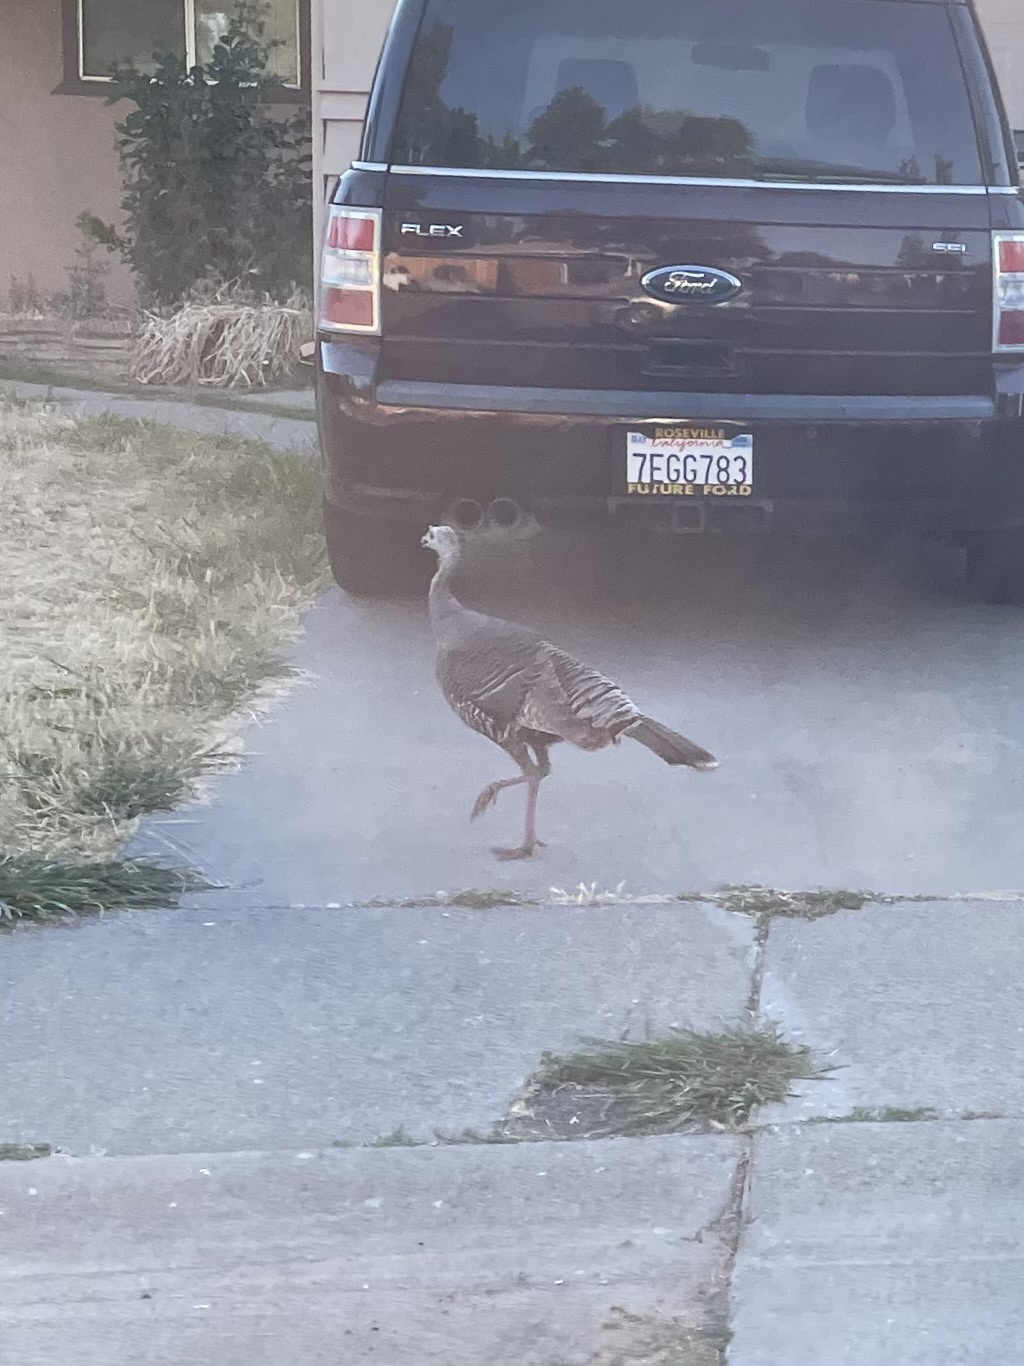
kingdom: Animalia
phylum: Chordata
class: Aves
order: Galliformes
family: Phasianidae
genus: Meleagris
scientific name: Meleagris gallopavo
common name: Wild turkey
